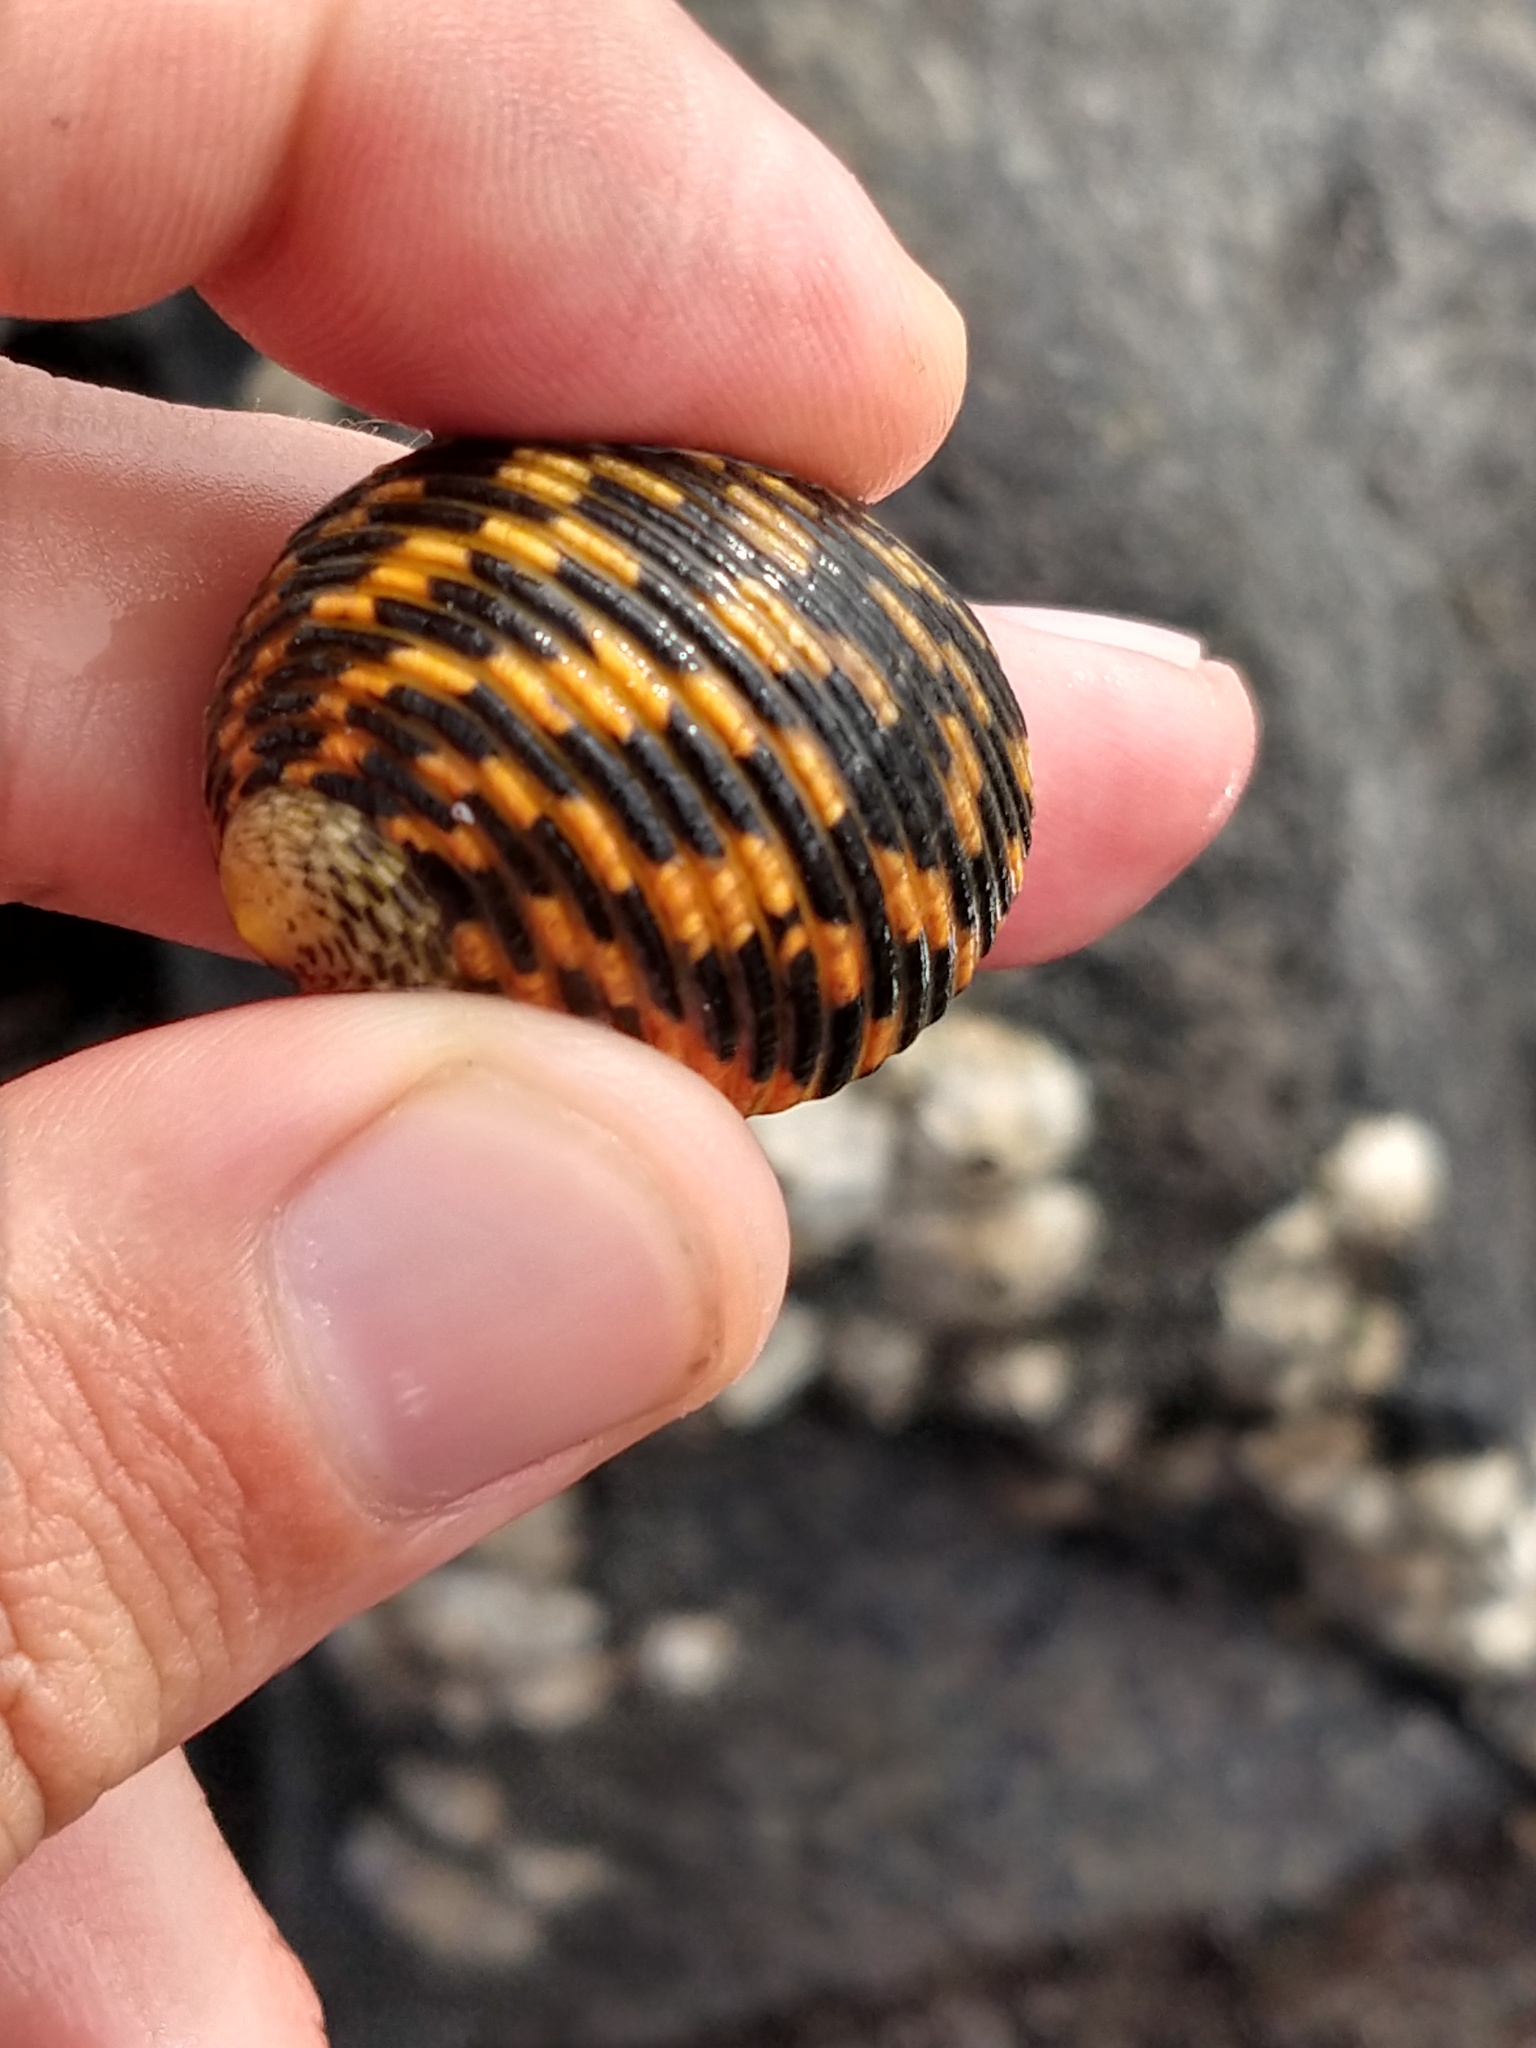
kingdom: Animalia
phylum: Mollusca
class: Gastropoda
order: Cycloneritida
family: Neritidae
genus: Nerita
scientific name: Nerita scabricosta
